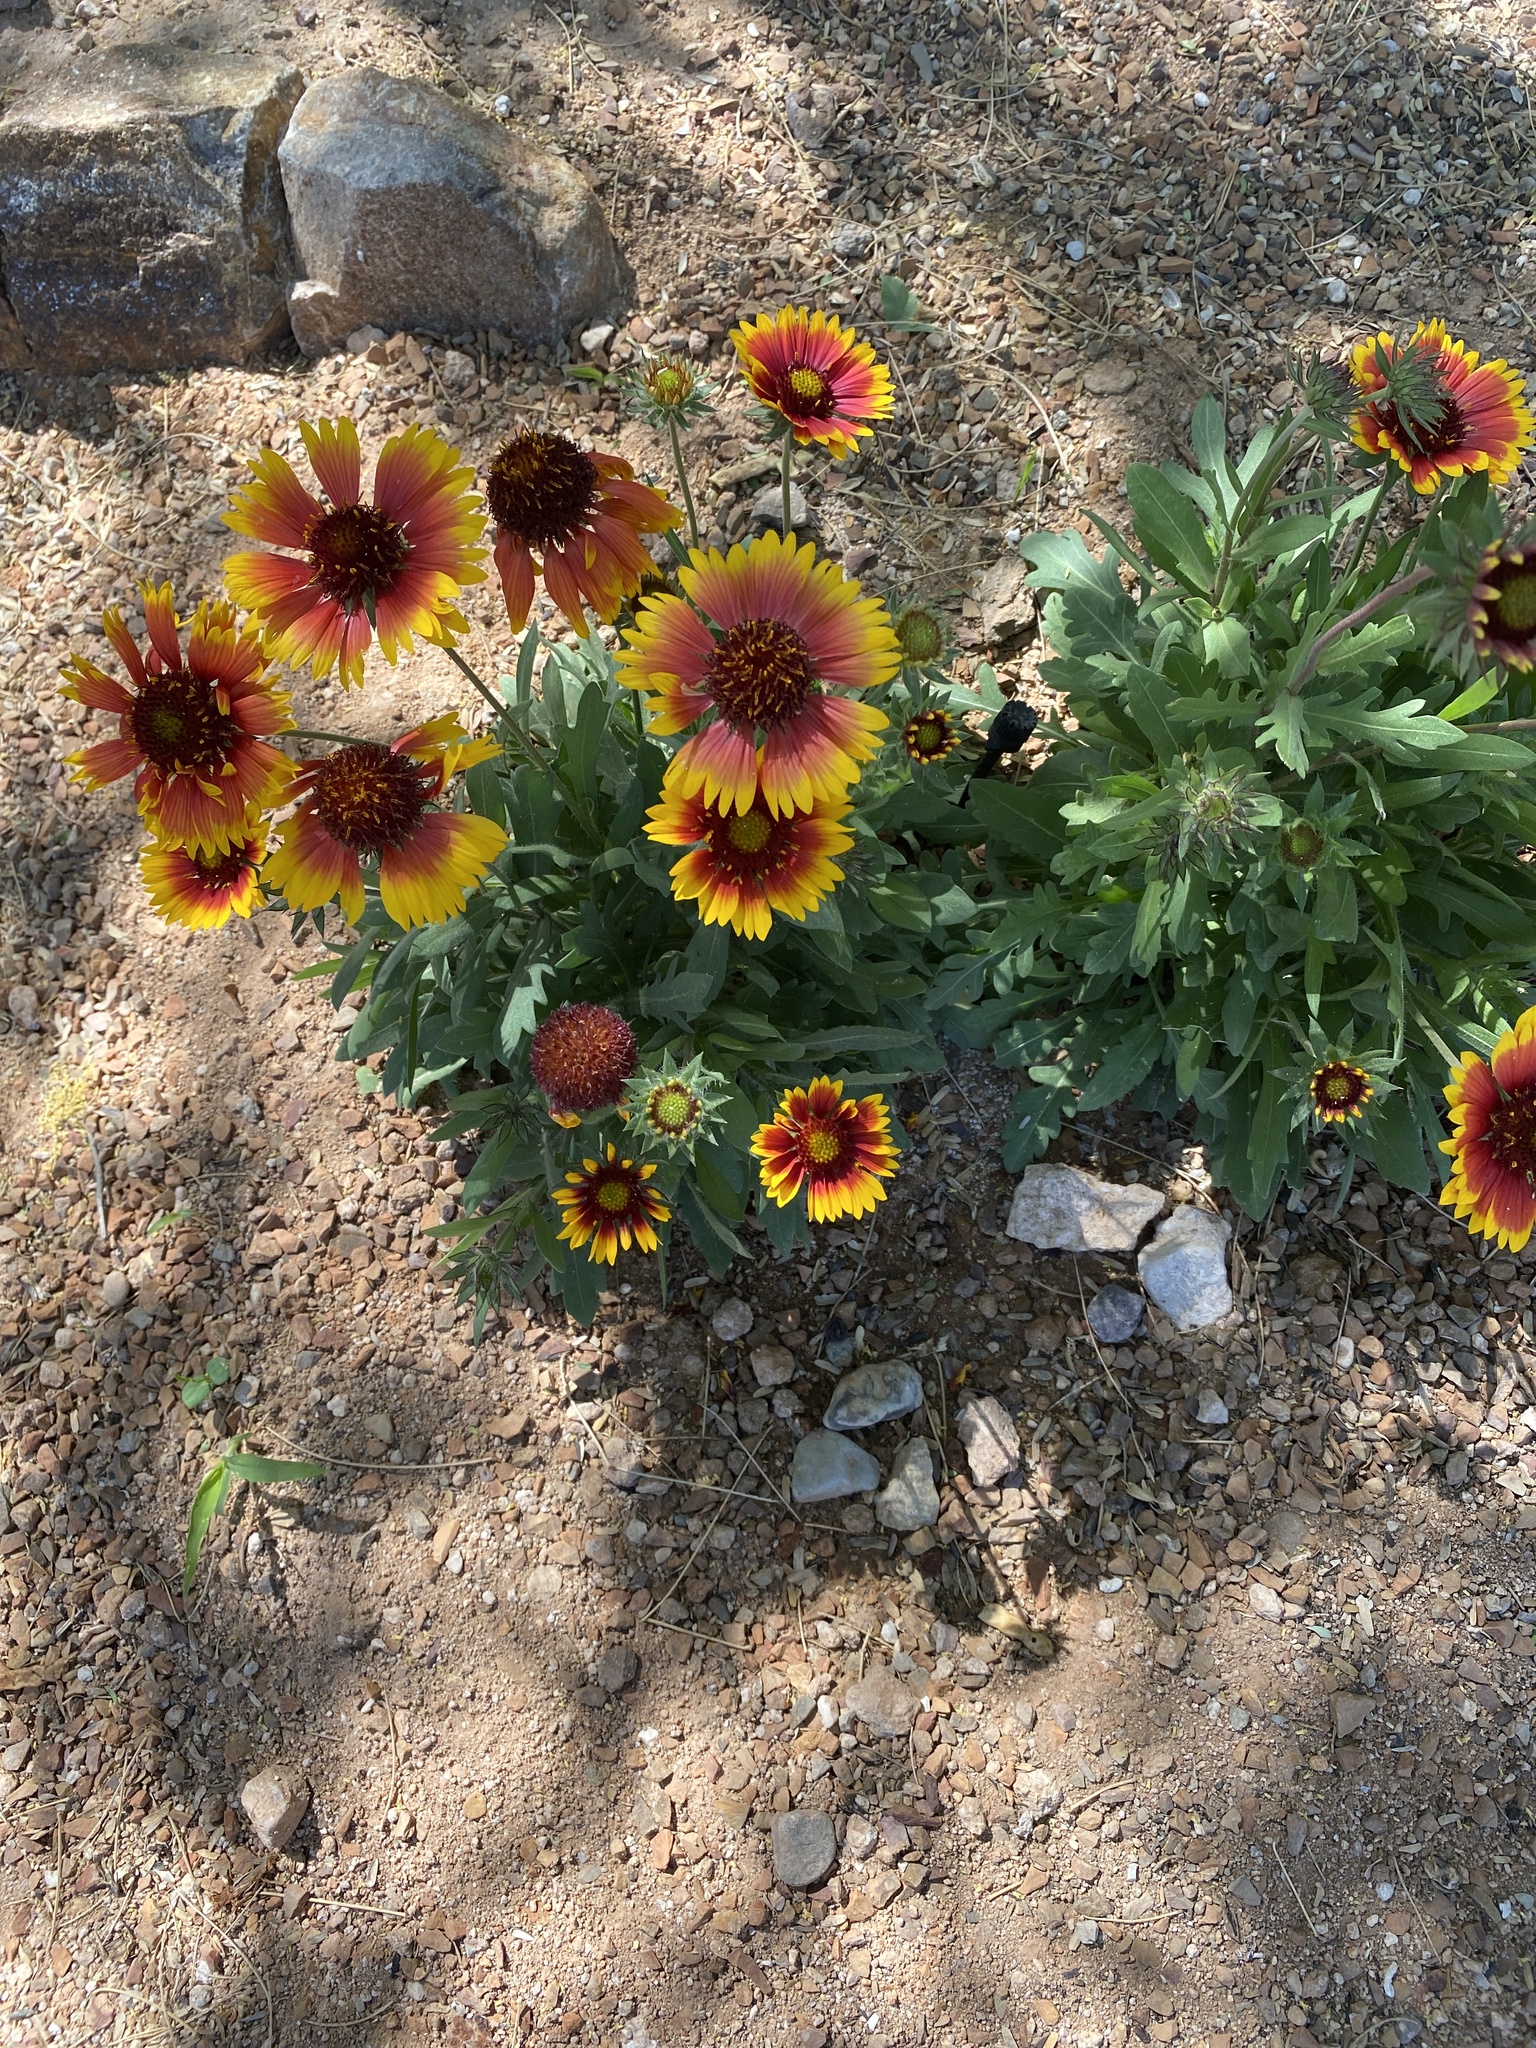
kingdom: Plantae
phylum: Tracheophyta
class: Magnoliopsida
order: Asterales
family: Asteraceae
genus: Gaillardia
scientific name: Gaillardia pulchella
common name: Firewheel
